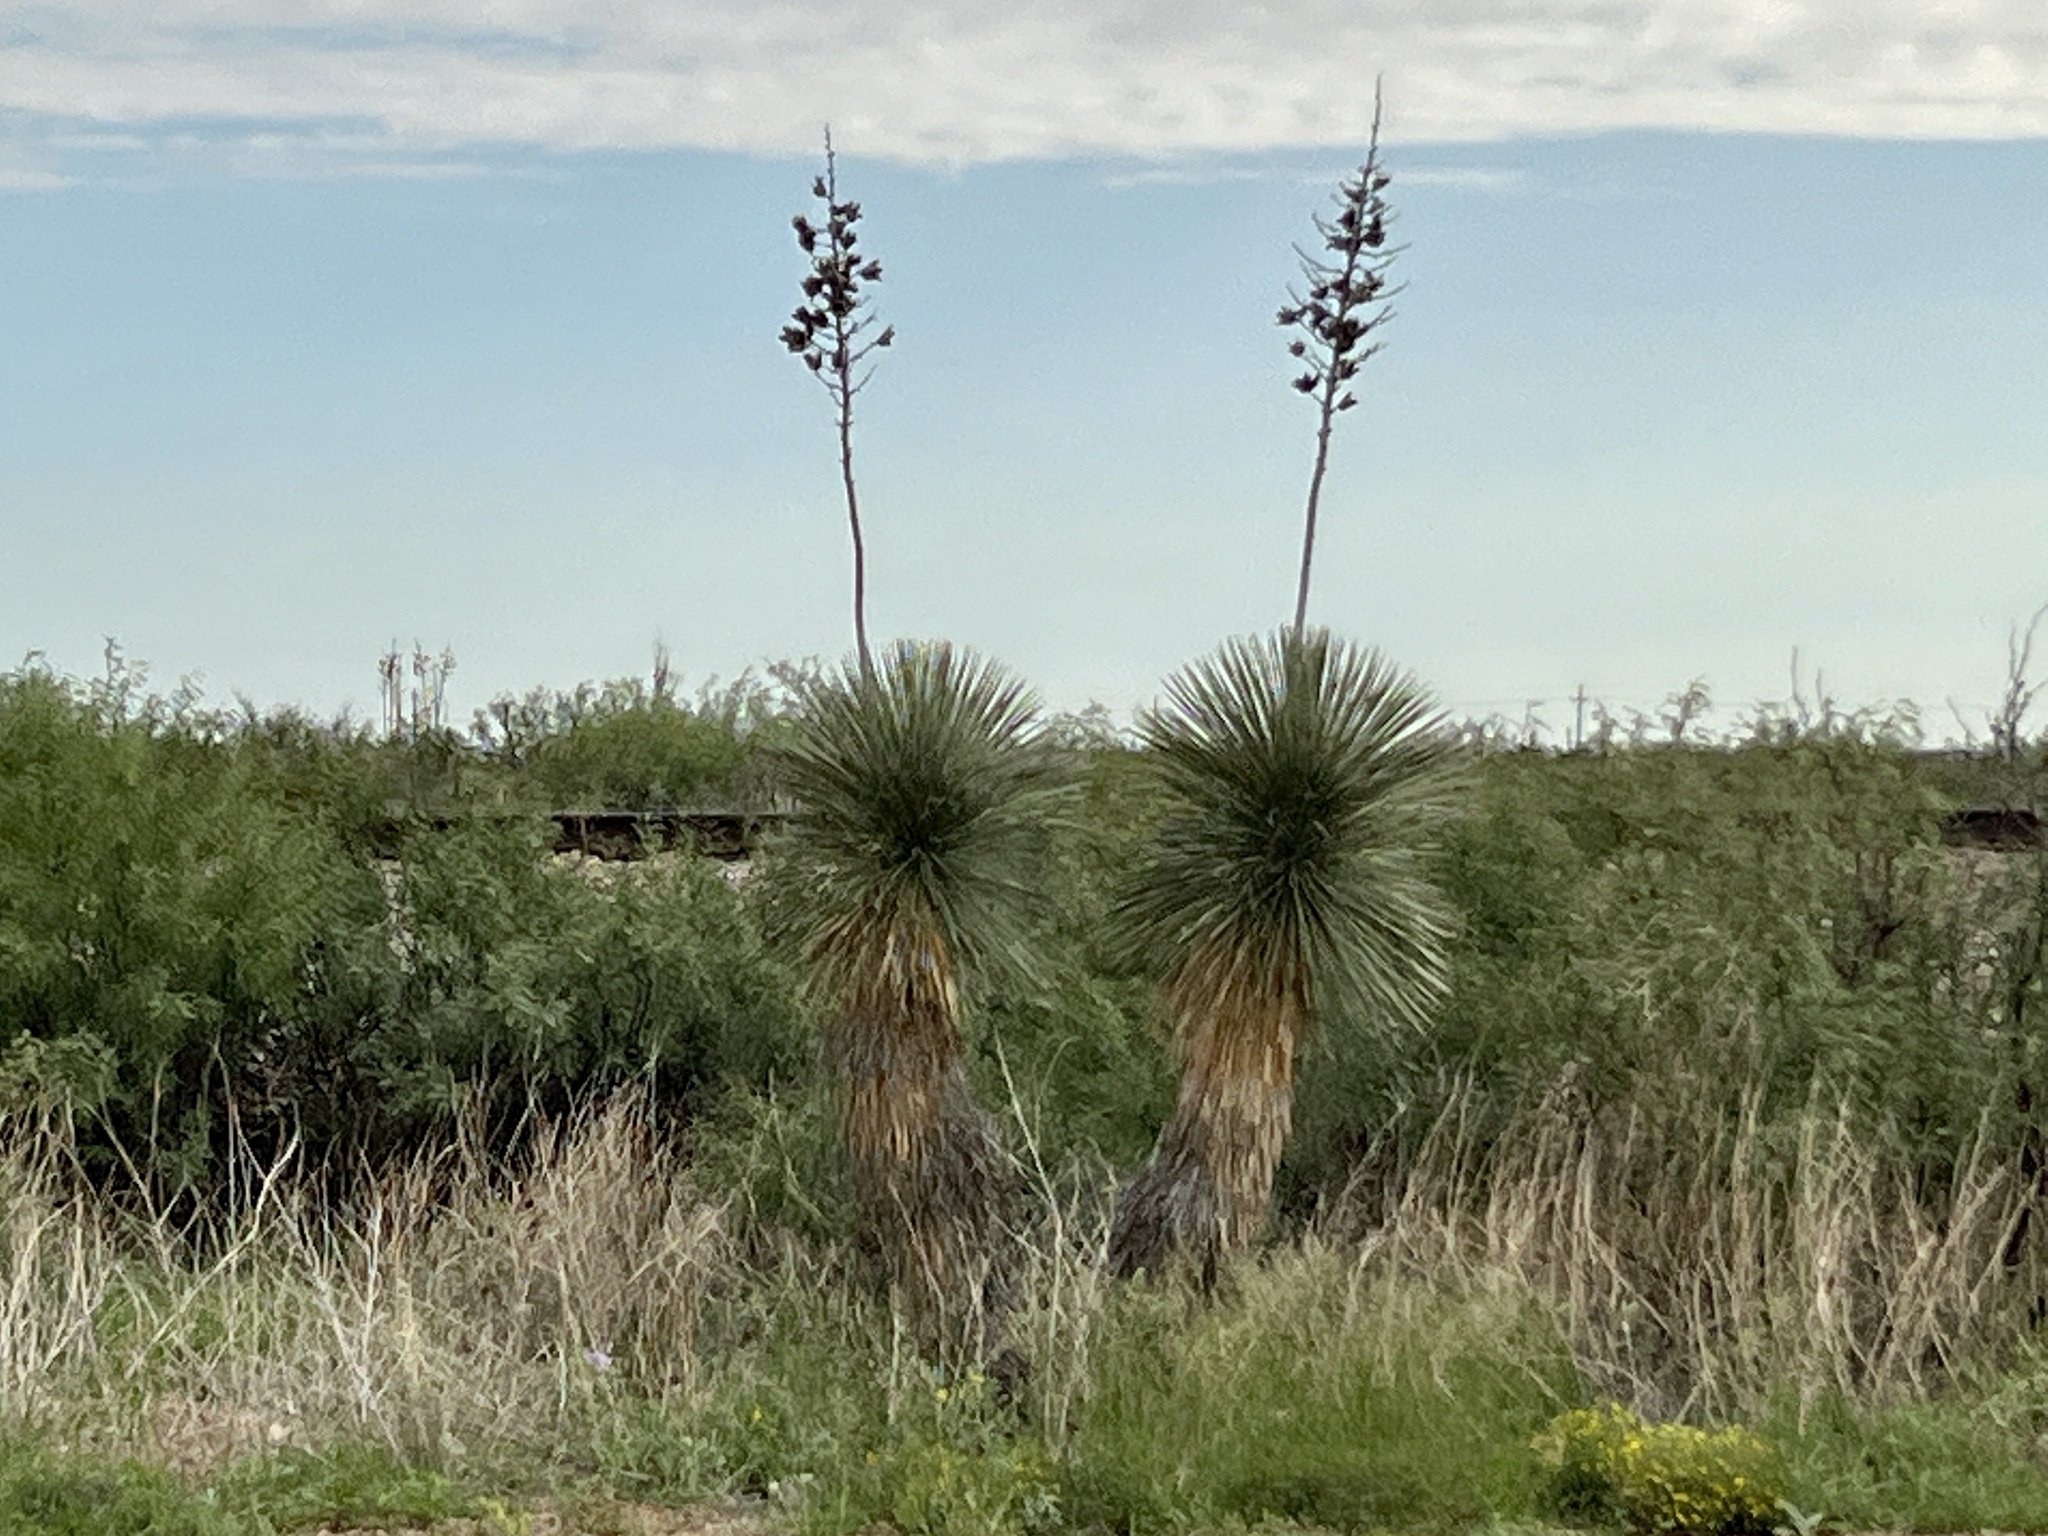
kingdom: Plantae
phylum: Tracheophyta
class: Liliopsida
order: Asparagales
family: Asparagaceae
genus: Yucca
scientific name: Yucca elata
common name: Palmella
